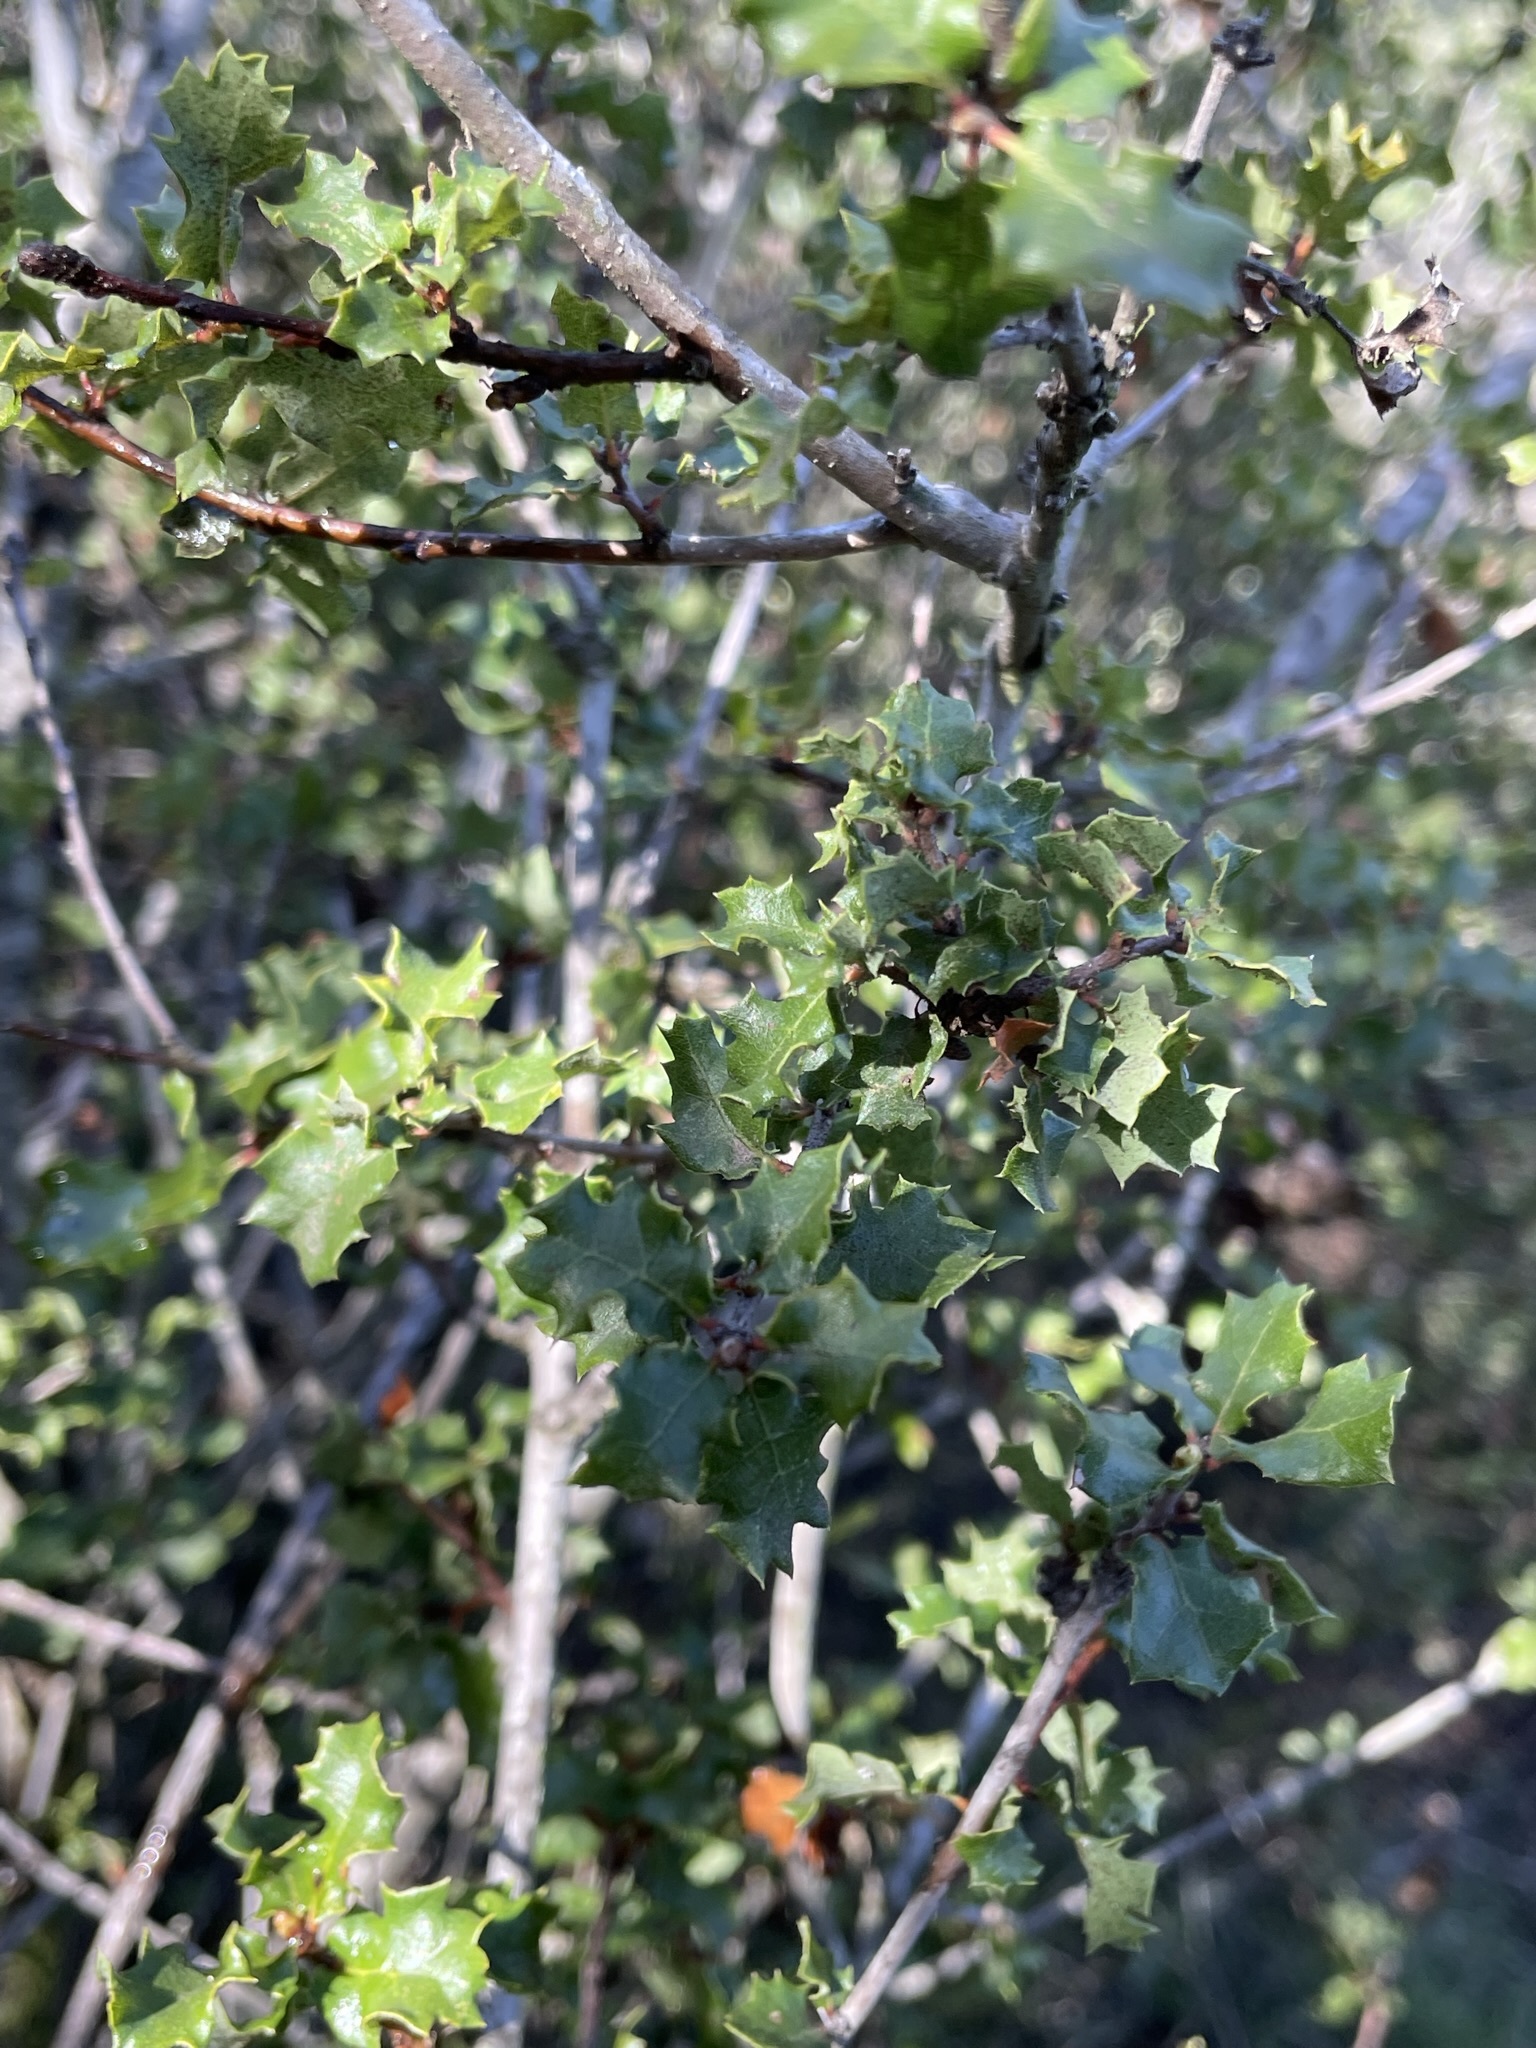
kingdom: Plantae
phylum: Tracheophyta
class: Magnoliopsida
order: Fagales
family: Fagaceae
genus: Quercus
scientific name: Quercus dumosa
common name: Coastal sage scrub oak
